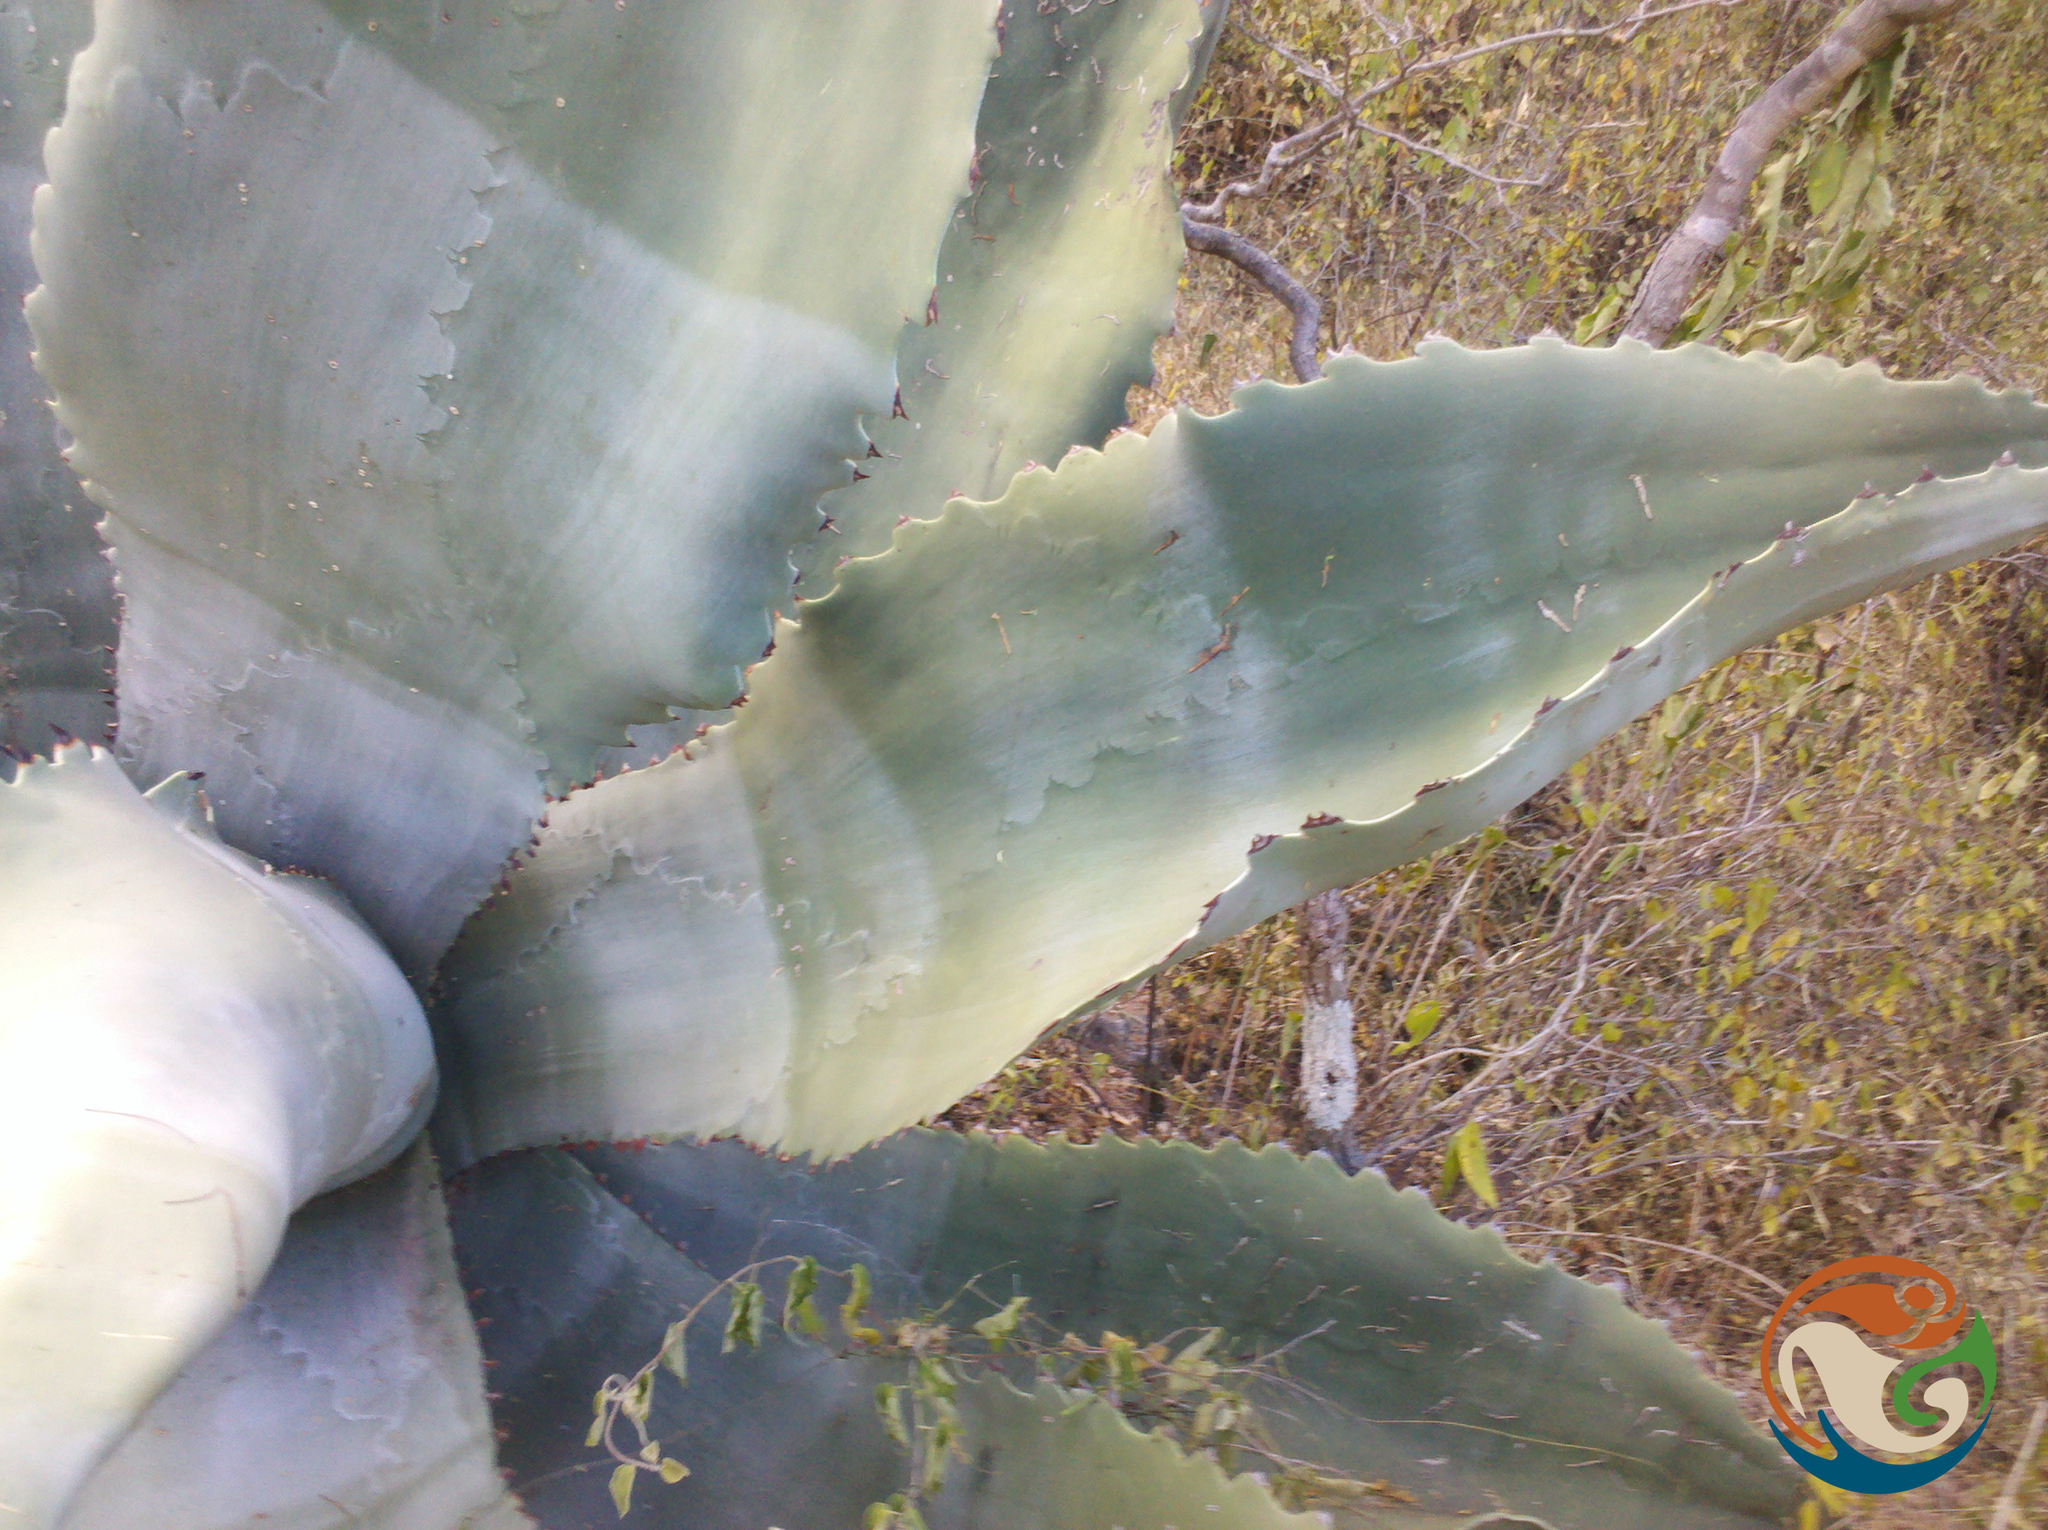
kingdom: Plantae
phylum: Tracheophyta
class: Liliopsida
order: Asparagales
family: Asparagaceae
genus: Agave
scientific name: Agave marmorata
